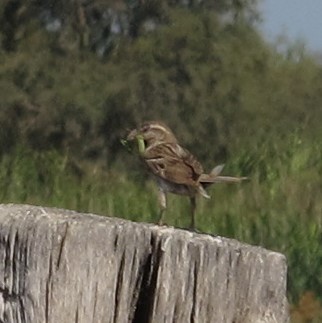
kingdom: Animalia
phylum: Chordata
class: Aves
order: Passeriformes
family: Passeridae
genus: Passer
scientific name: Passer domesticus
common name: House sparrow
